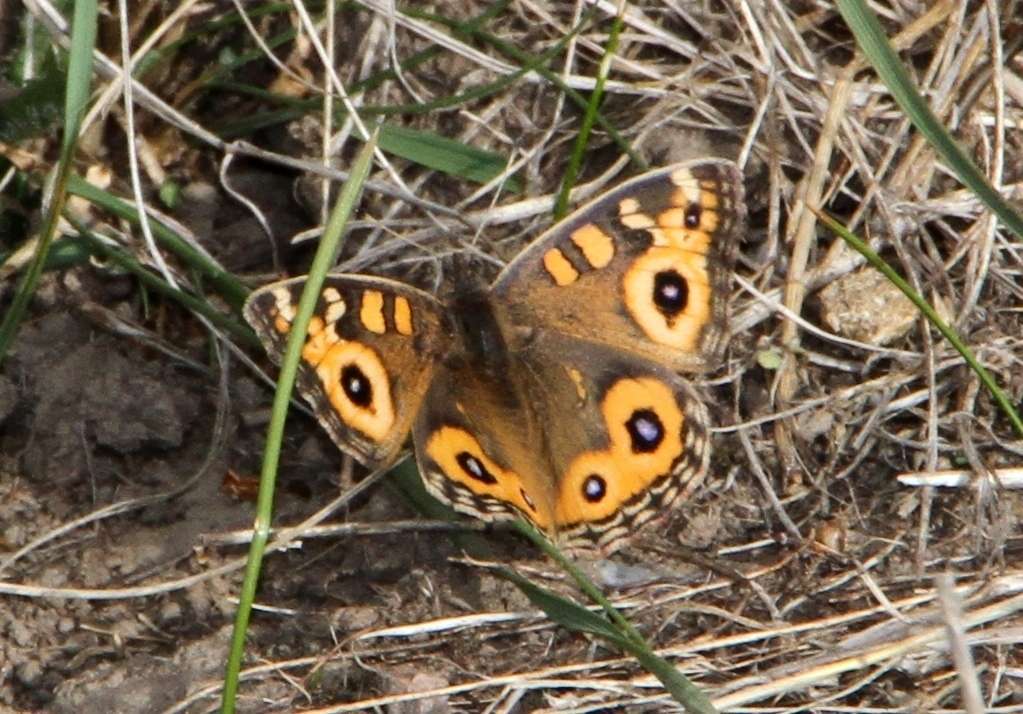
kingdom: Animalia
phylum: Arthropoda
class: Insecta
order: Lepidoptera
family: Nymphalidae
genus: Junonia
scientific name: Junonia villida
